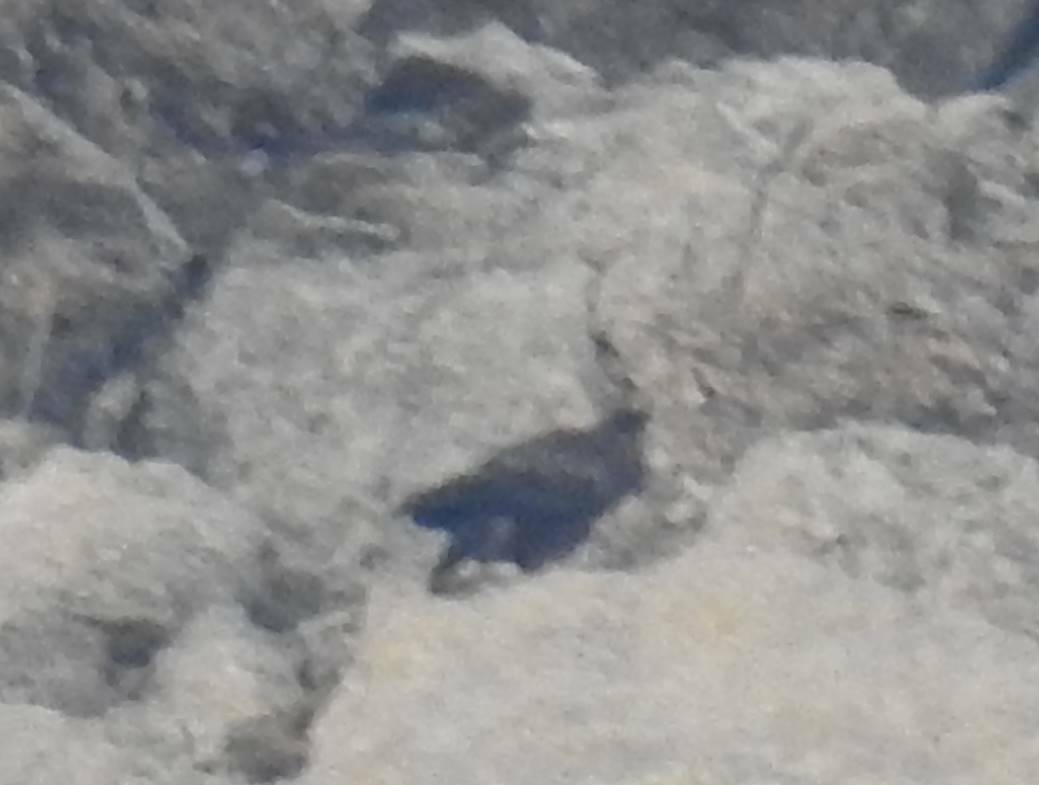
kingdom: Animalia
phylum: Chordata
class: Aves
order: Accipitriformes
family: Accipitridae
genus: Aquila
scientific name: Aquila chrysaetos
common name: Golden eagle
